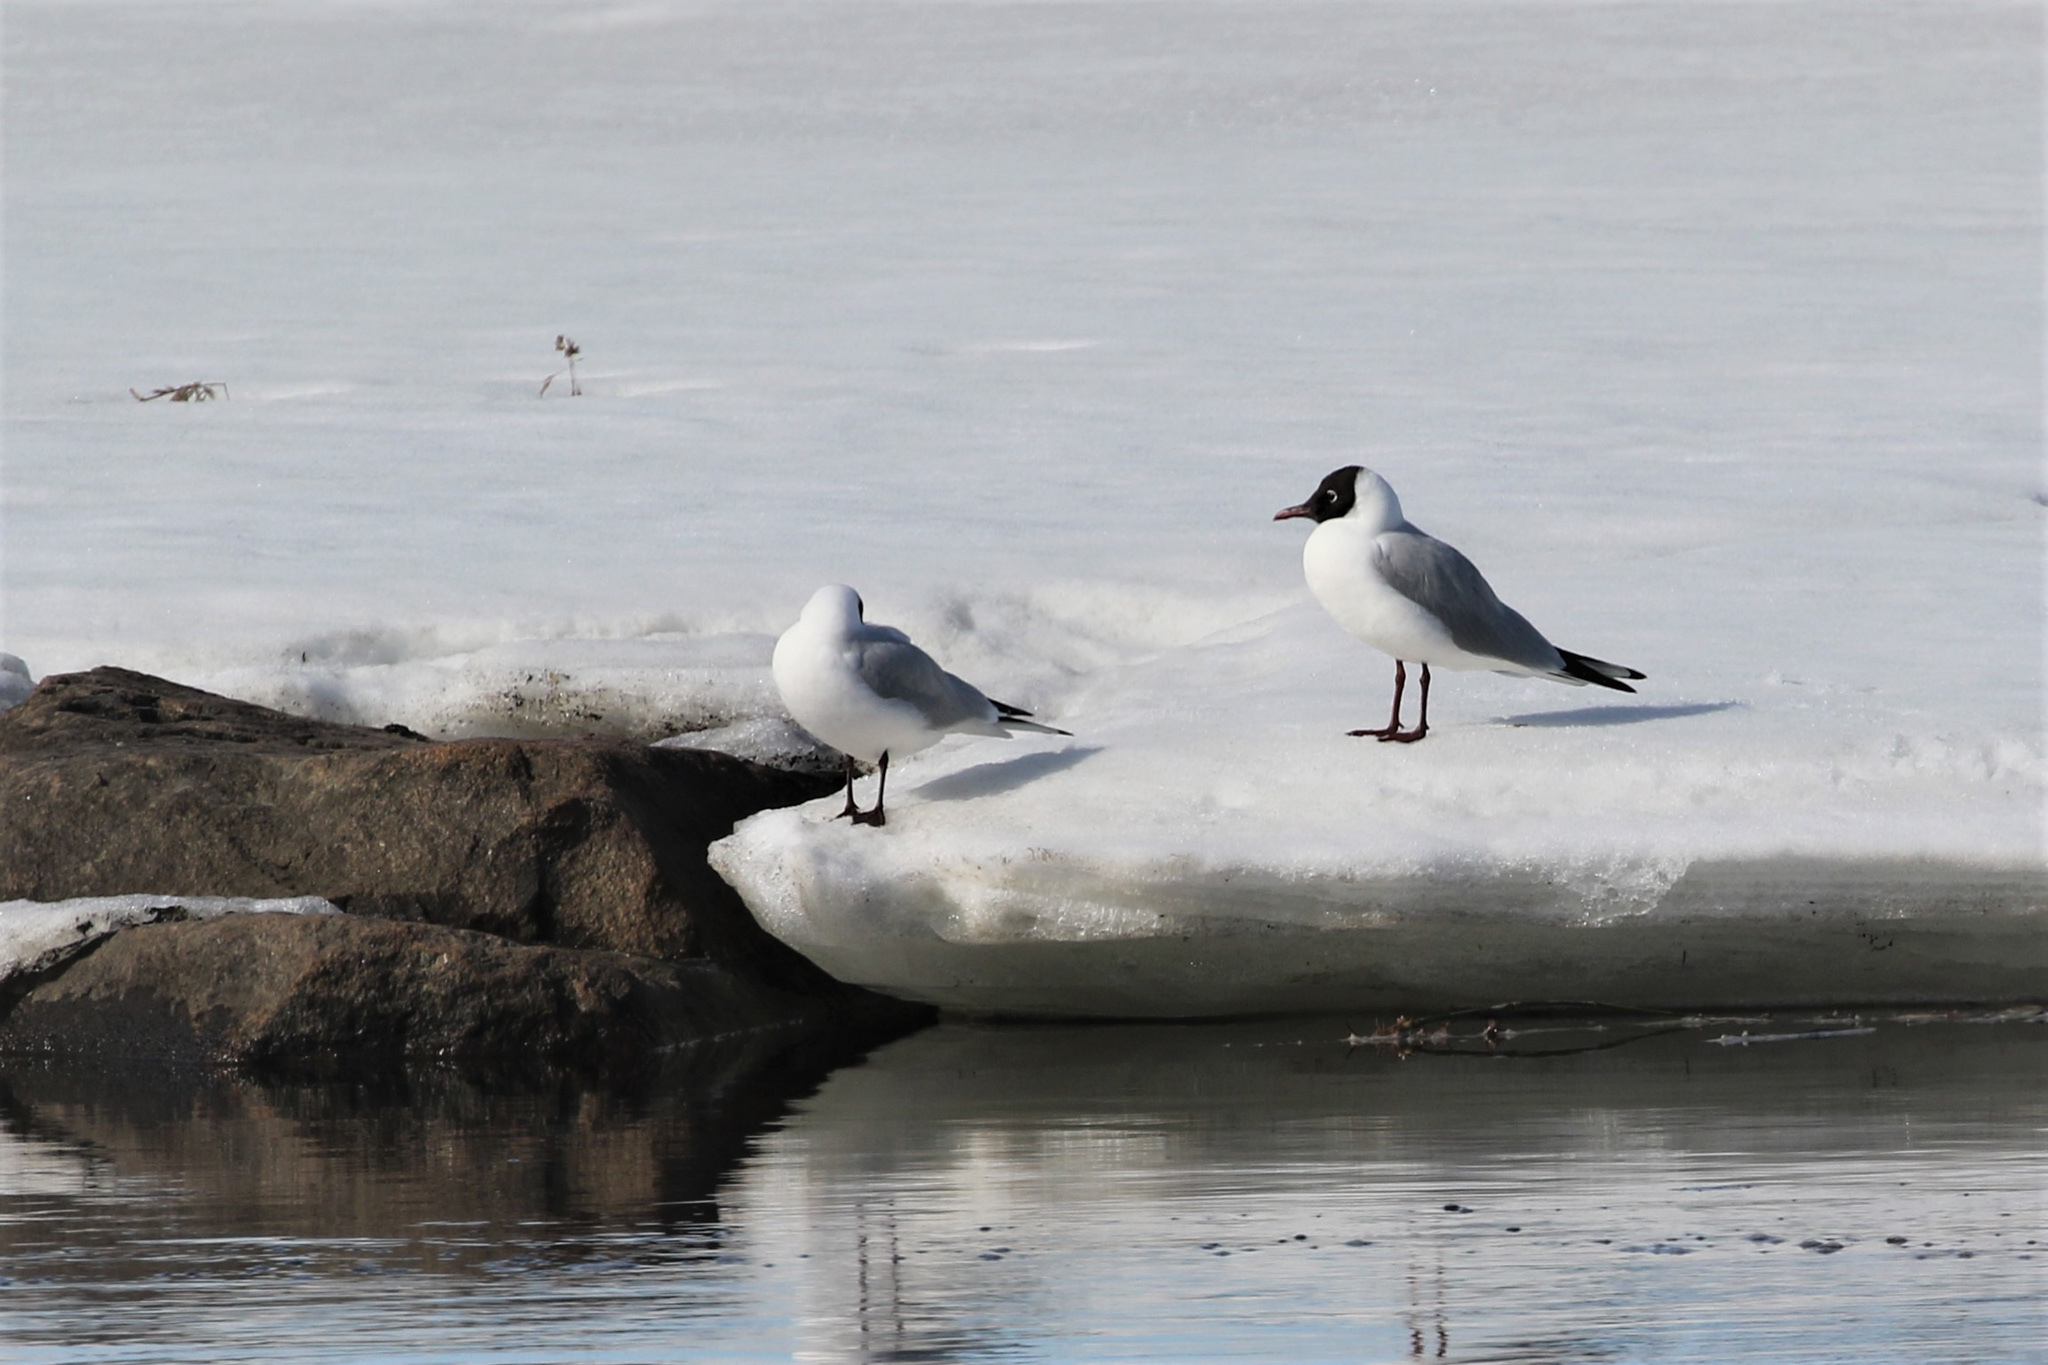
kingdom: Animalia
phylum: Chordata
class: Aves
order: Charadriiformes
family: Laridae
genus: Chroicocephalus
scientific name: Chroicocephalus ridibundus
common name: Black-headed gull
